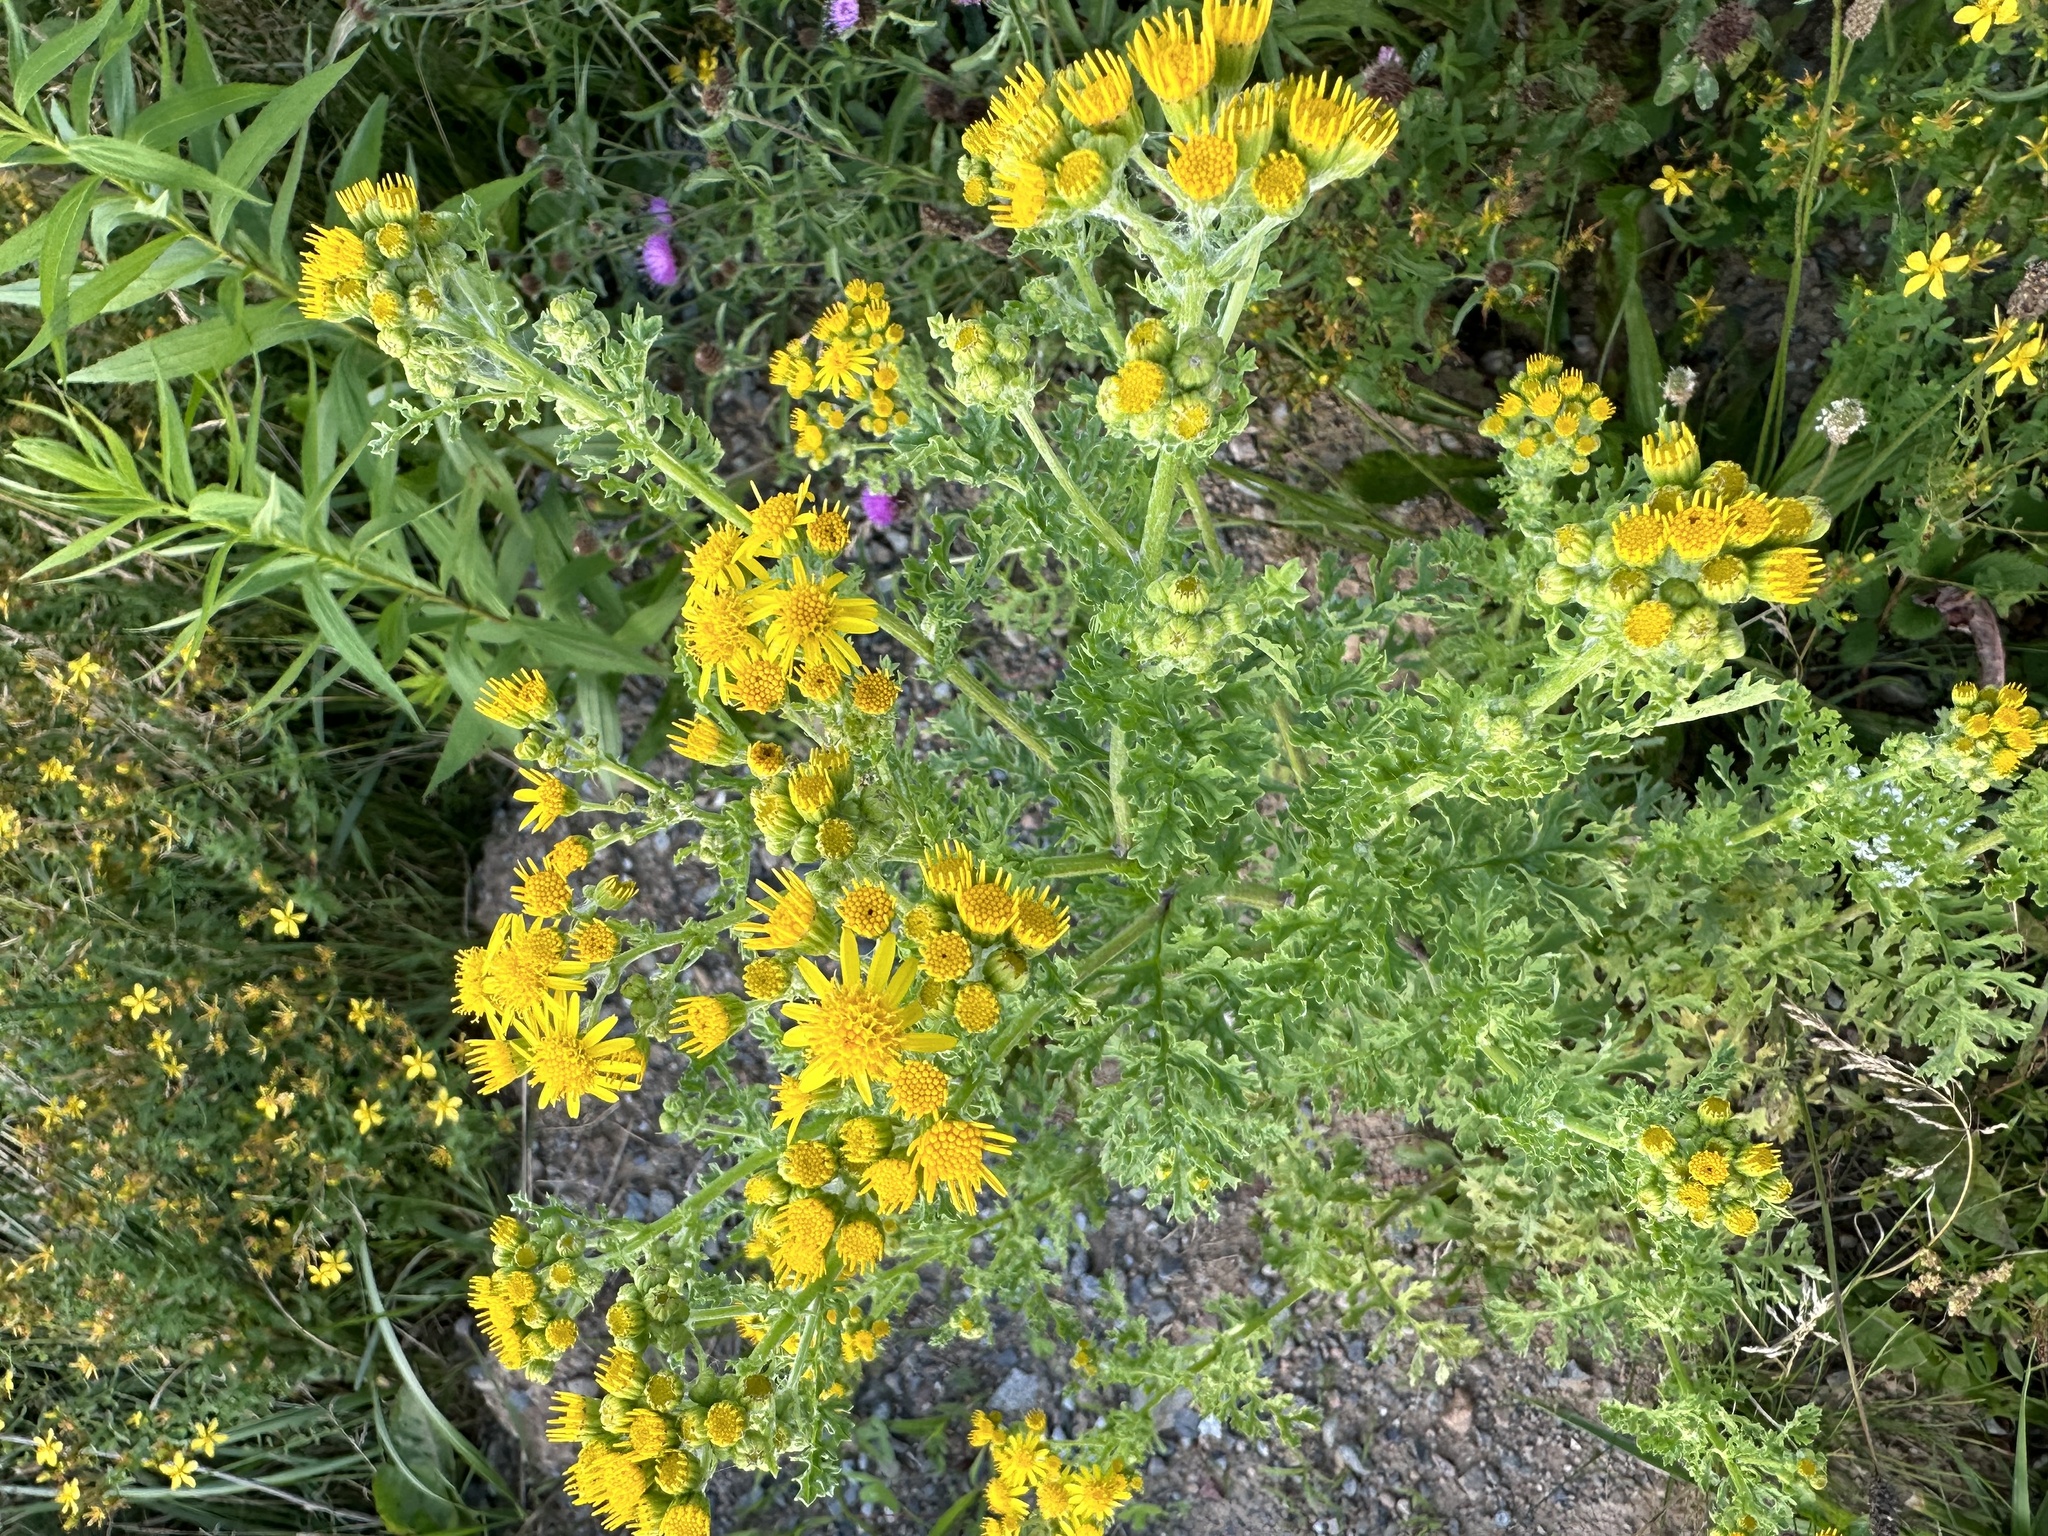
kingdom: Plantae
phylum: Tracheophyta
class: Magnoliopsida
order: Asterales
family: Asteraceae
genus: Jacobaea
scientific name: Jacobaea vulgaris
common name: Stinking willie
